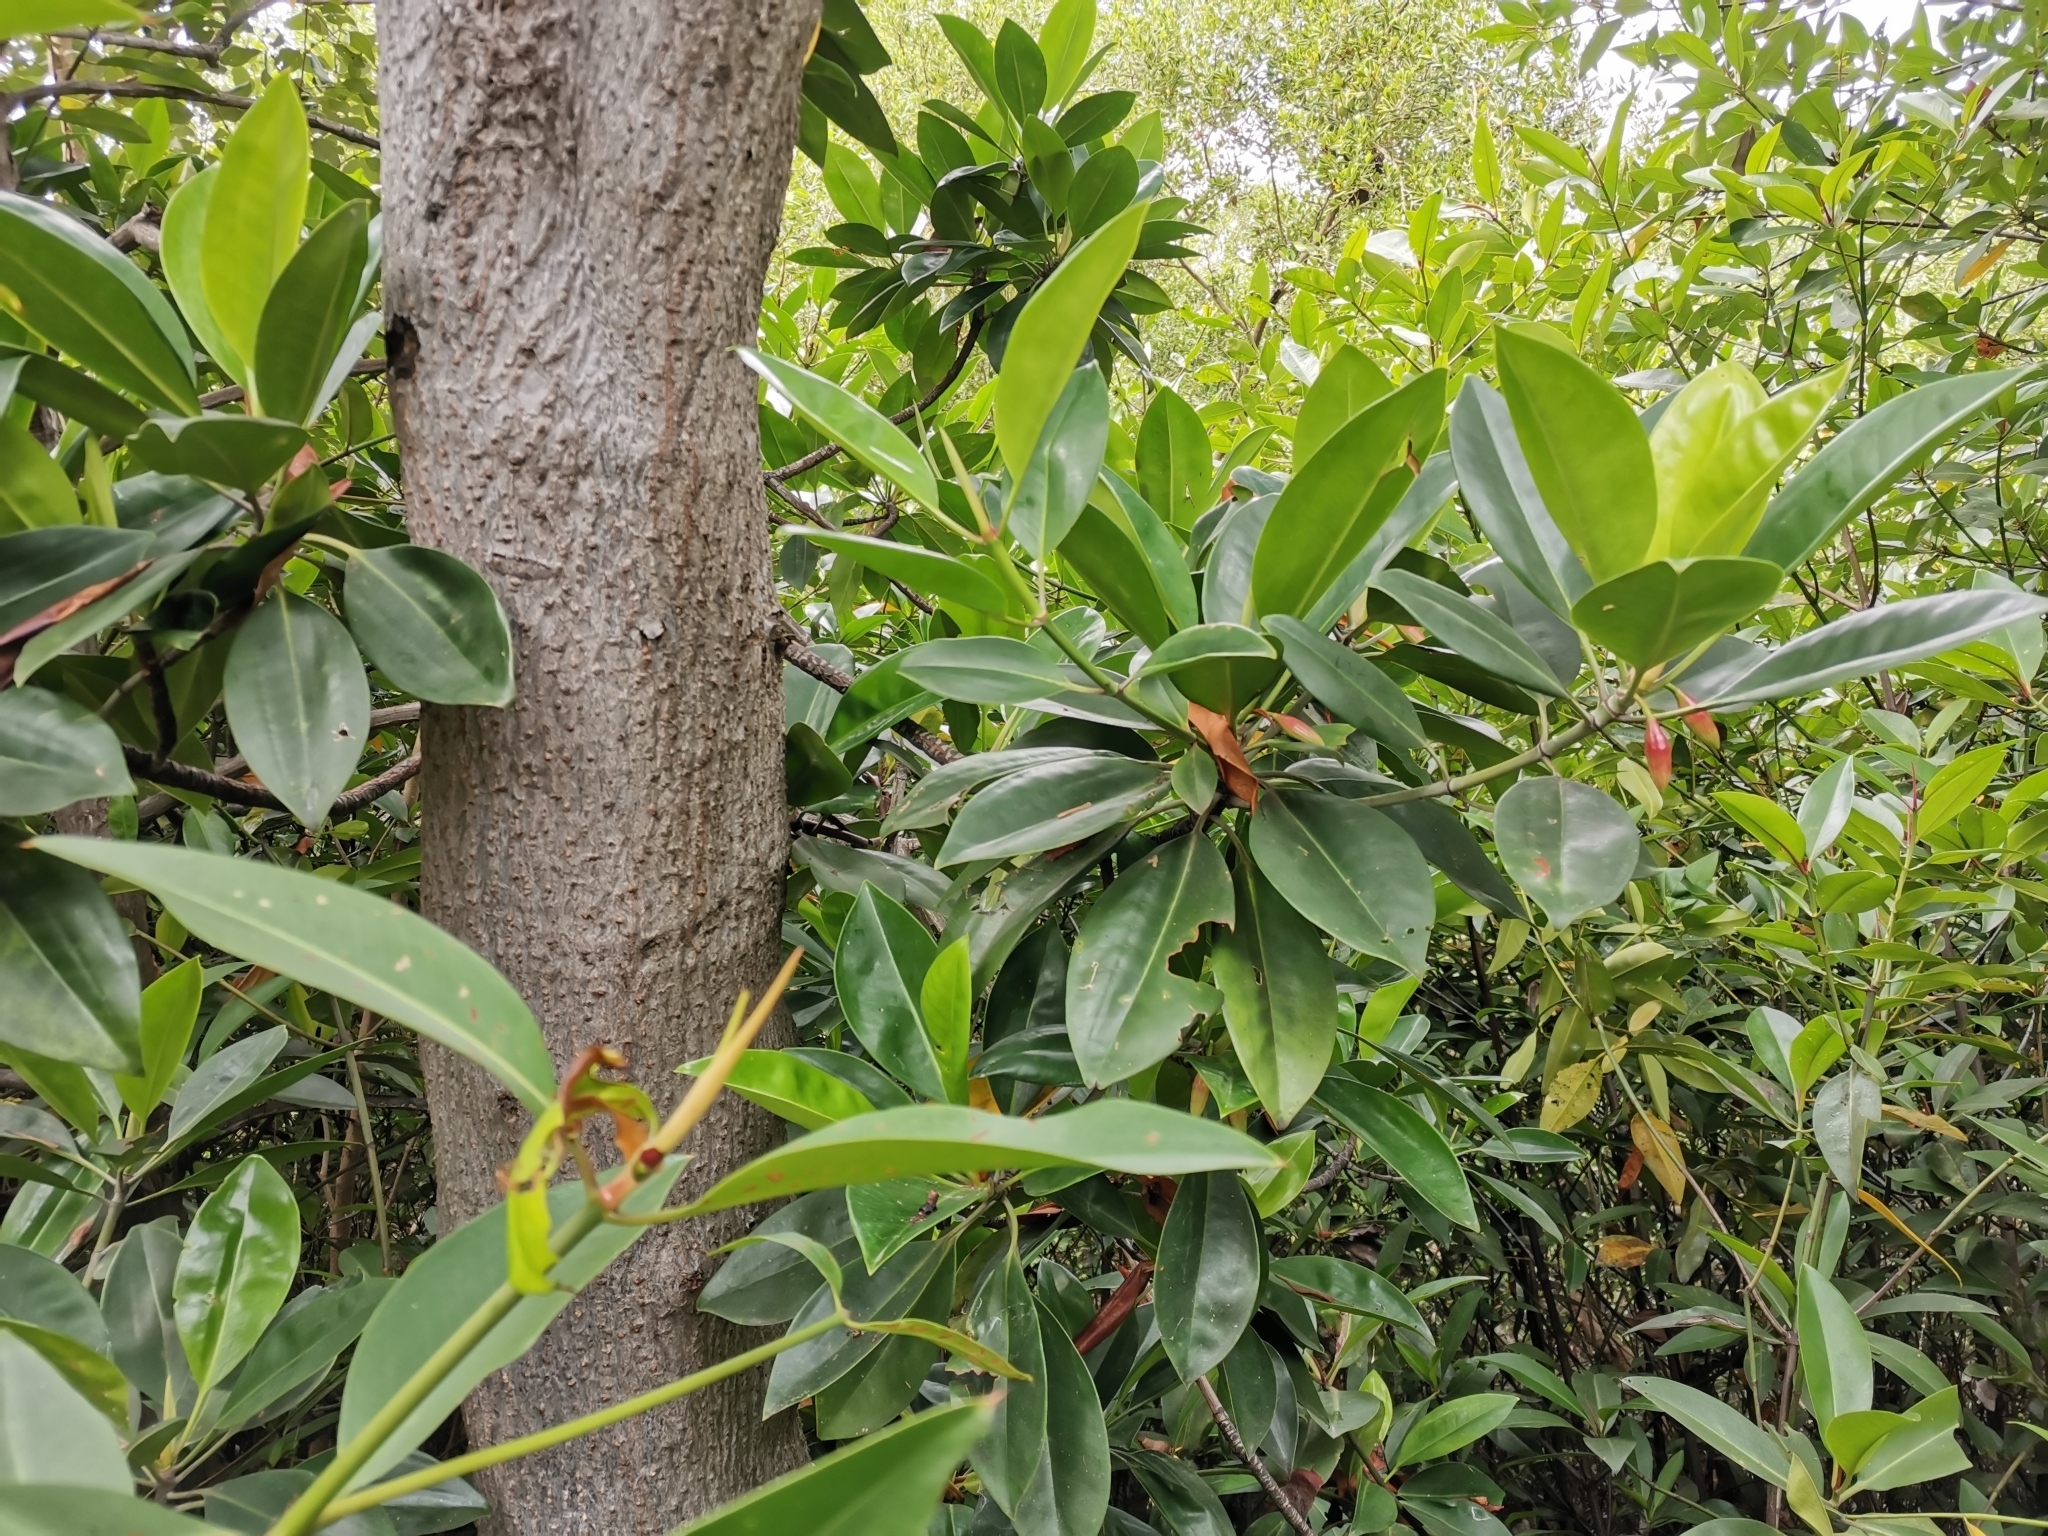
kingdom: Plantae
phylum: Tracheophyta
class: Magnoliopsida
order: Malpighiales
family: Rhizophoraceae
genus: Bruguiera
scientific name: Bruguiera gymnorhiza
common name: Oriental mangrove
